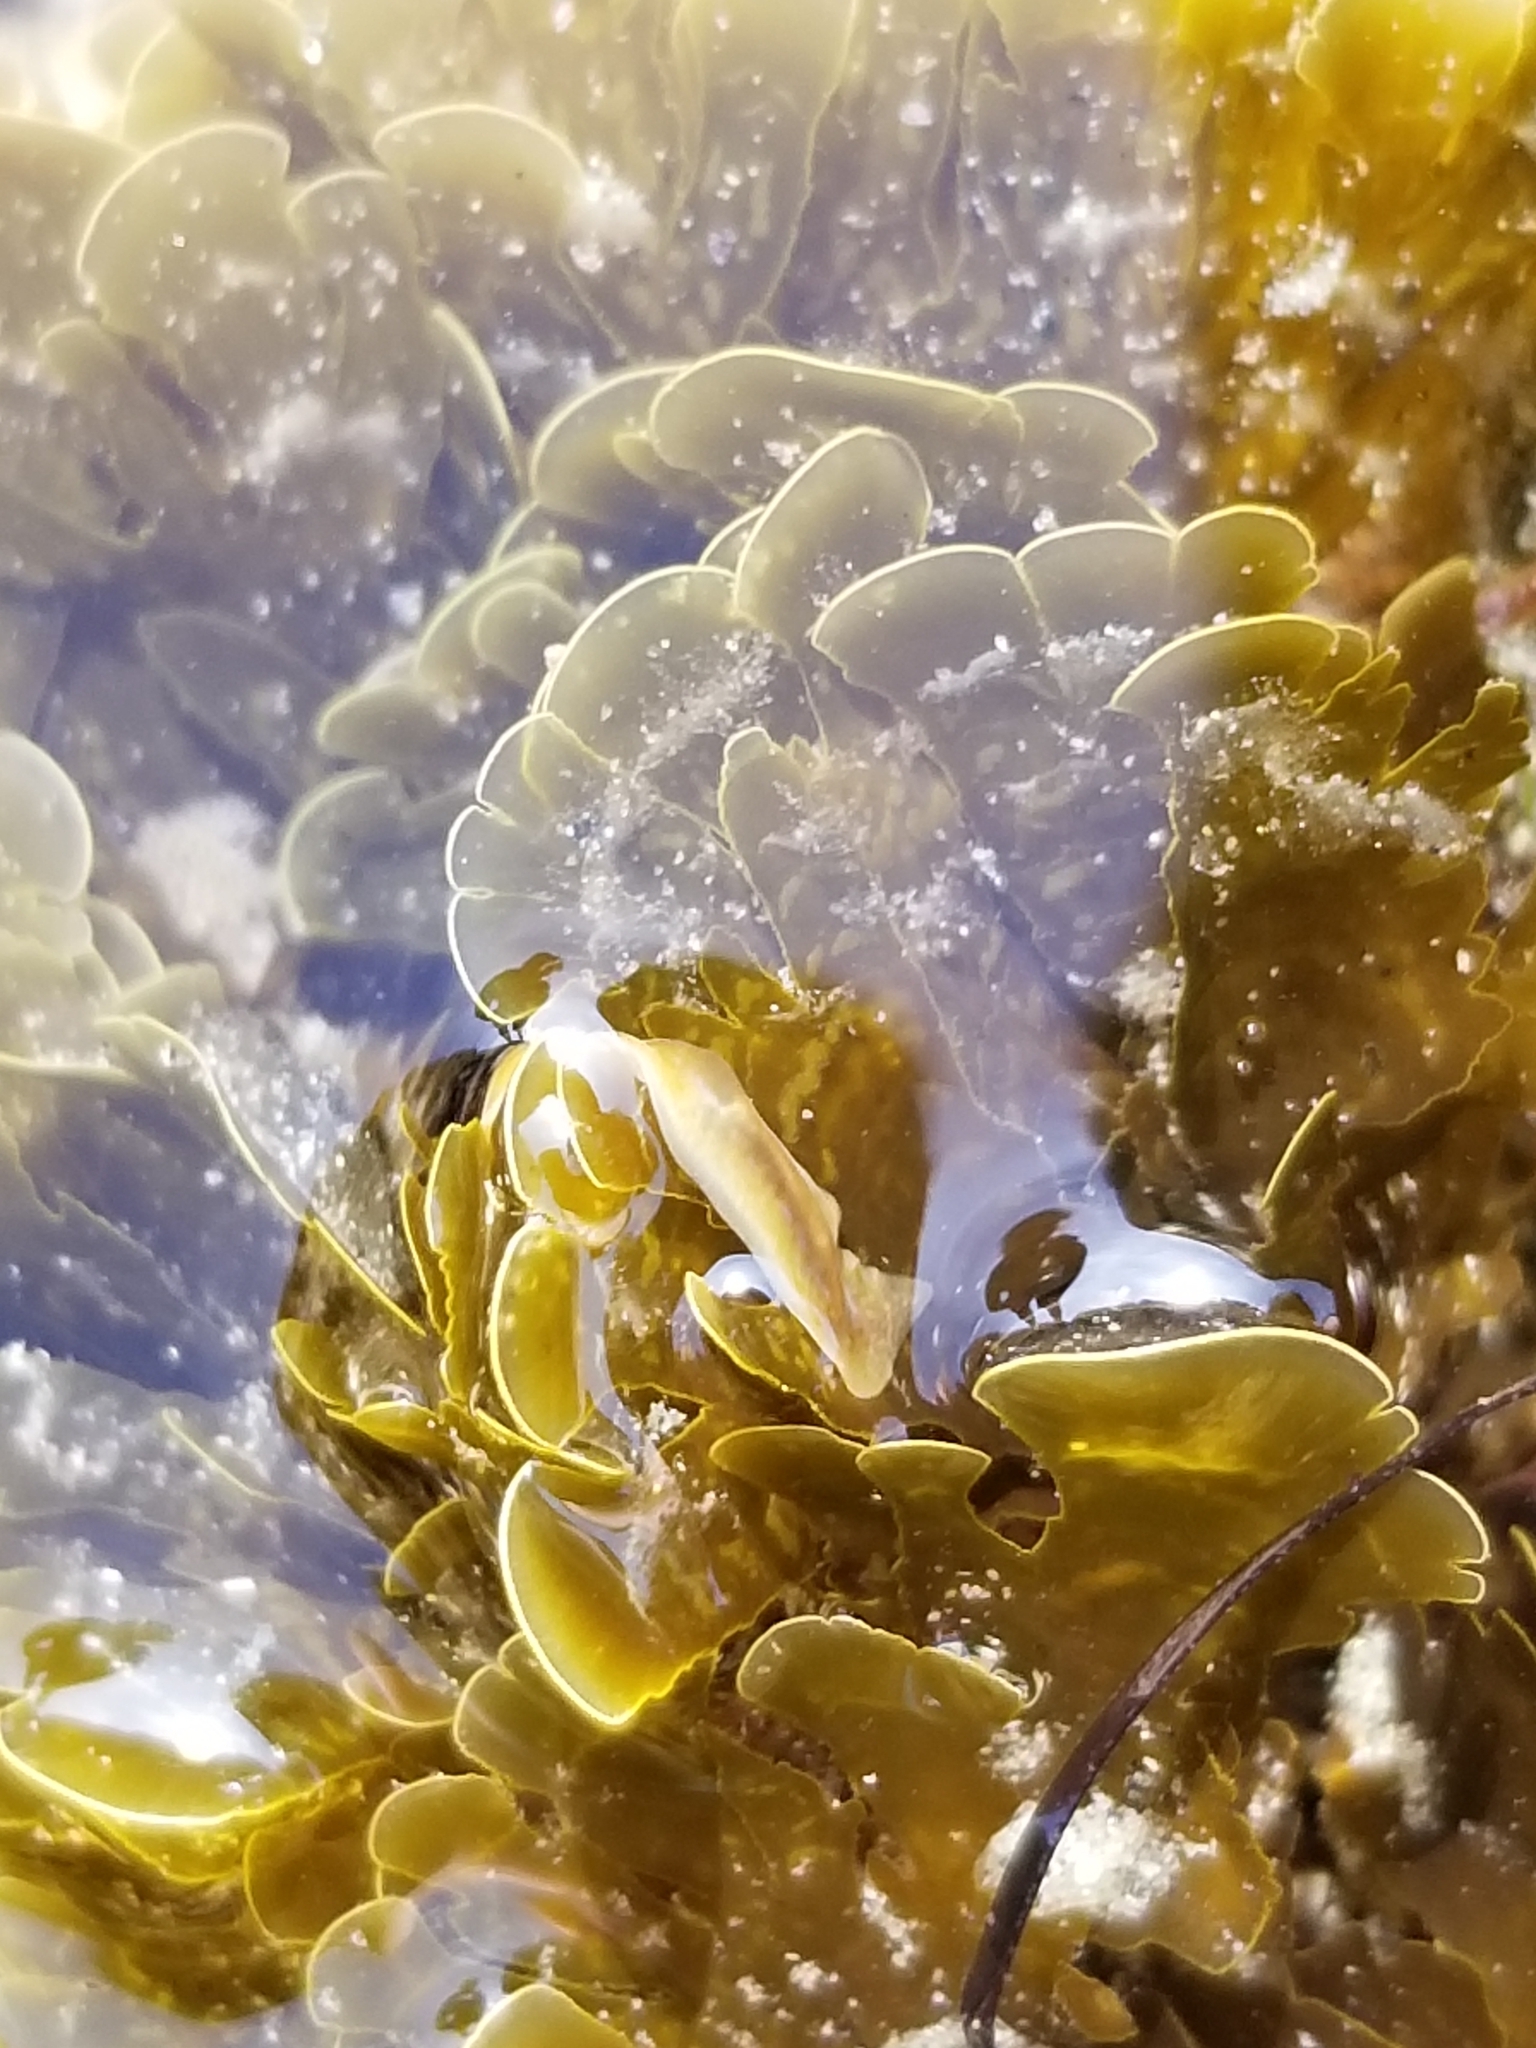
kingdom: Chromista
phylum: Ochrophyta
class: Phaeophyceae
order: Dictyotales
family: Dictyotaceae
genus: Zonaria
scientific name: Zonaria farlowii
